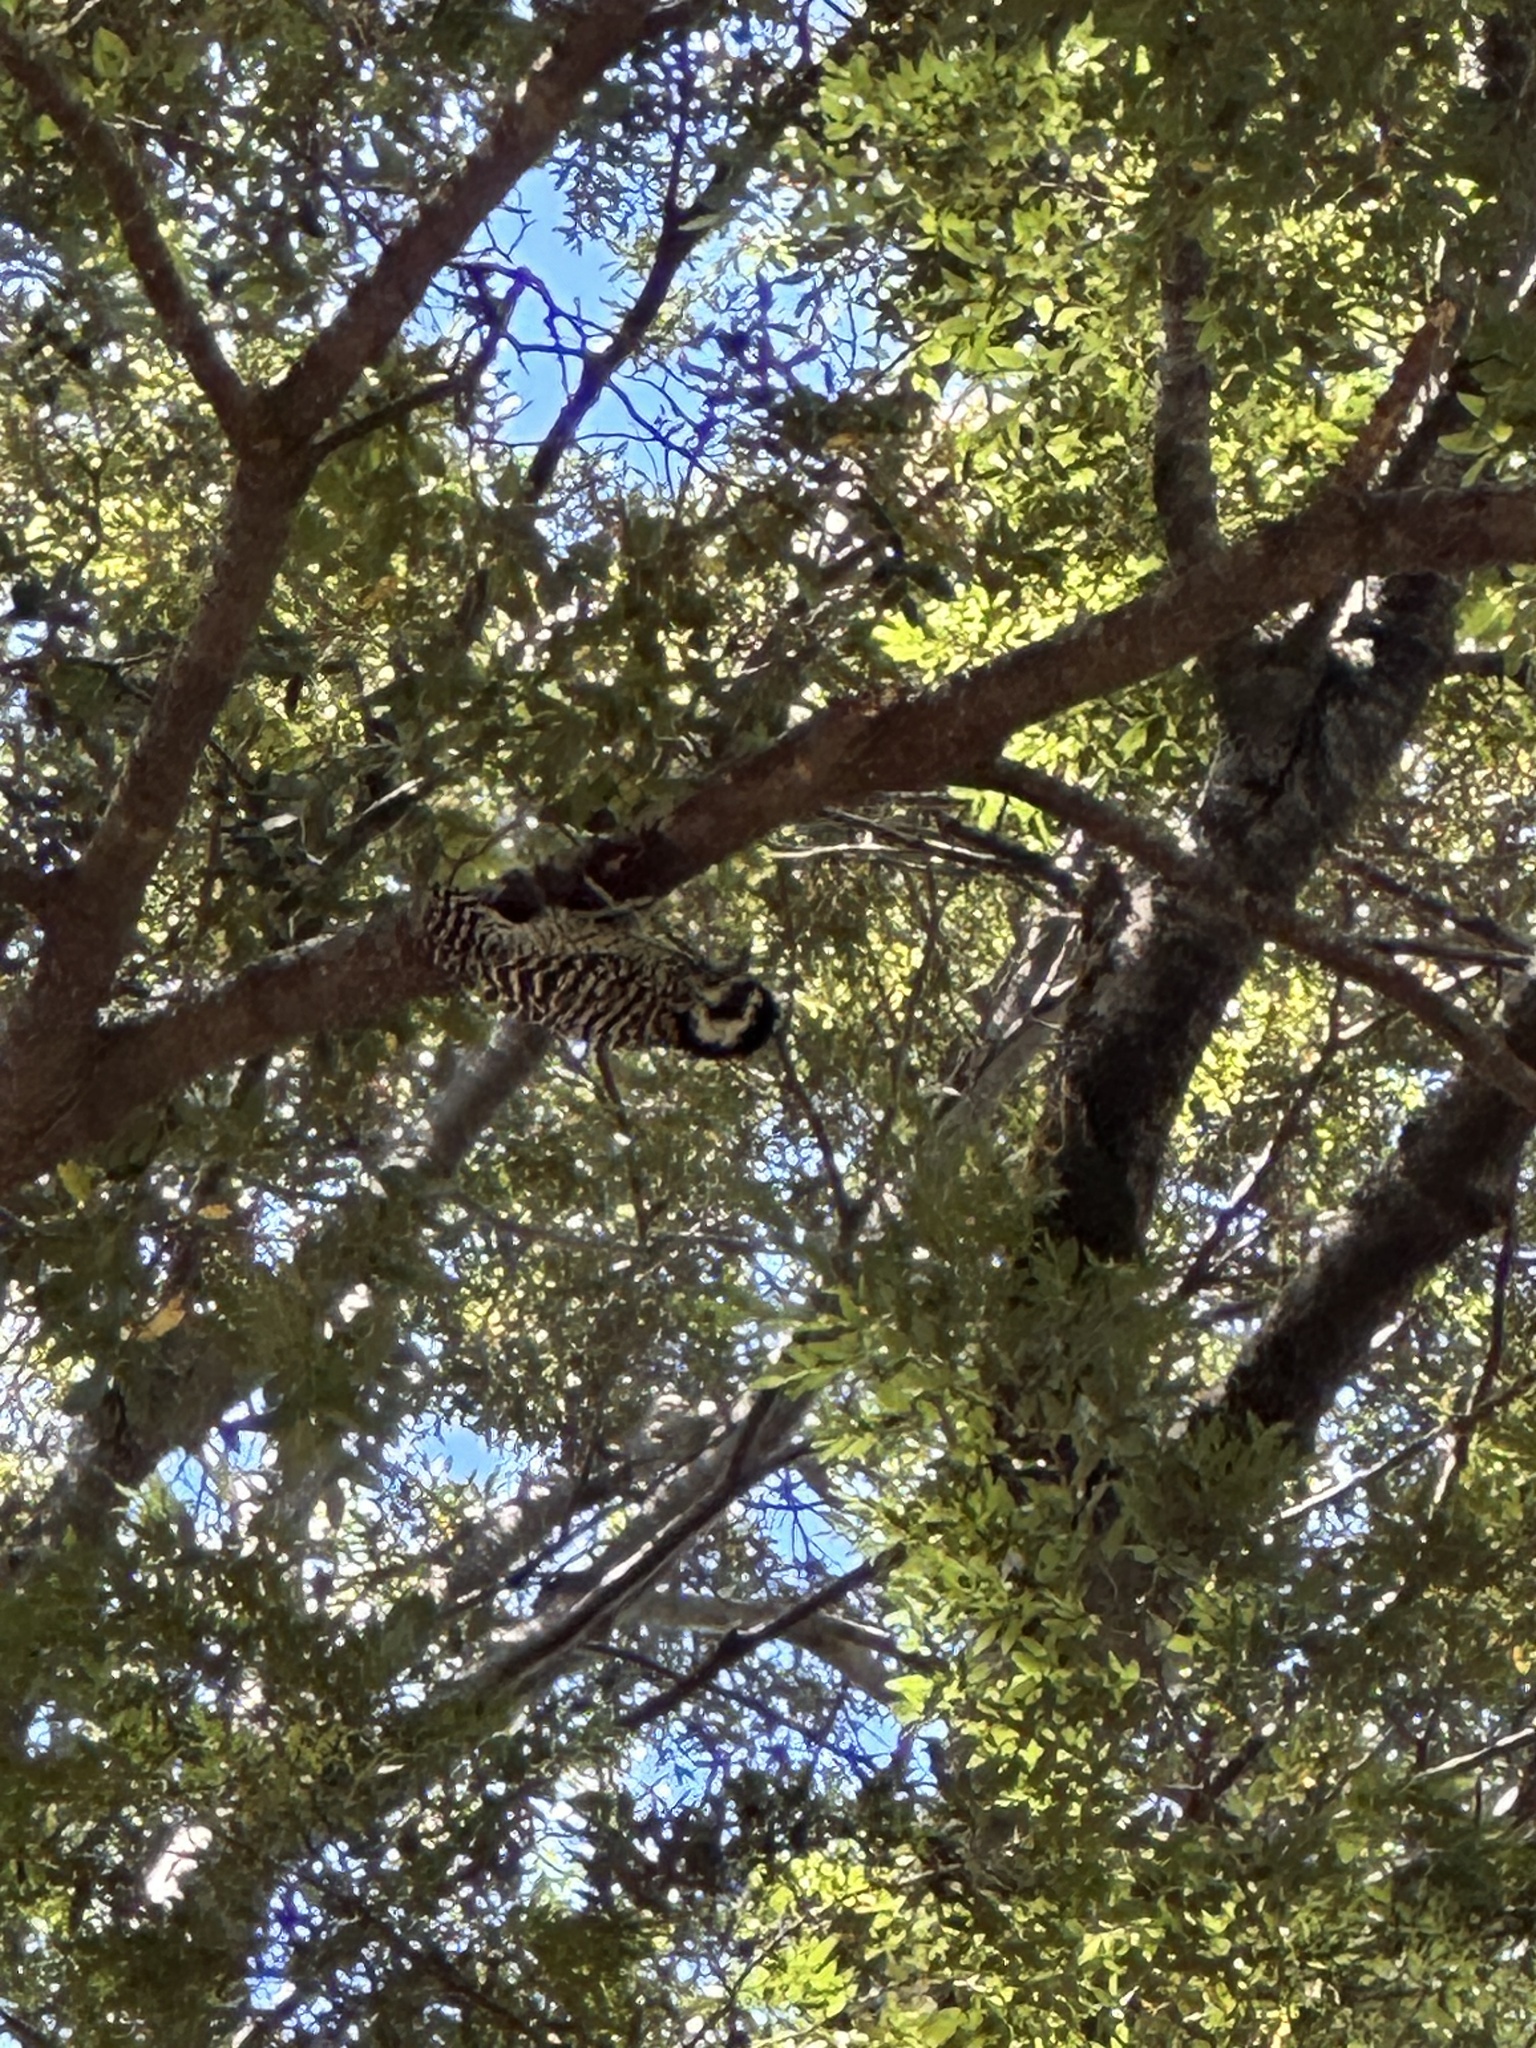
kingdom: Animalia
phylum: Chordata
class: Aves
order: Piciformes
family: Picidae
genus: Veniliornis
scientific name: Veniliornis lignarius
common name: Striped woodpecker
